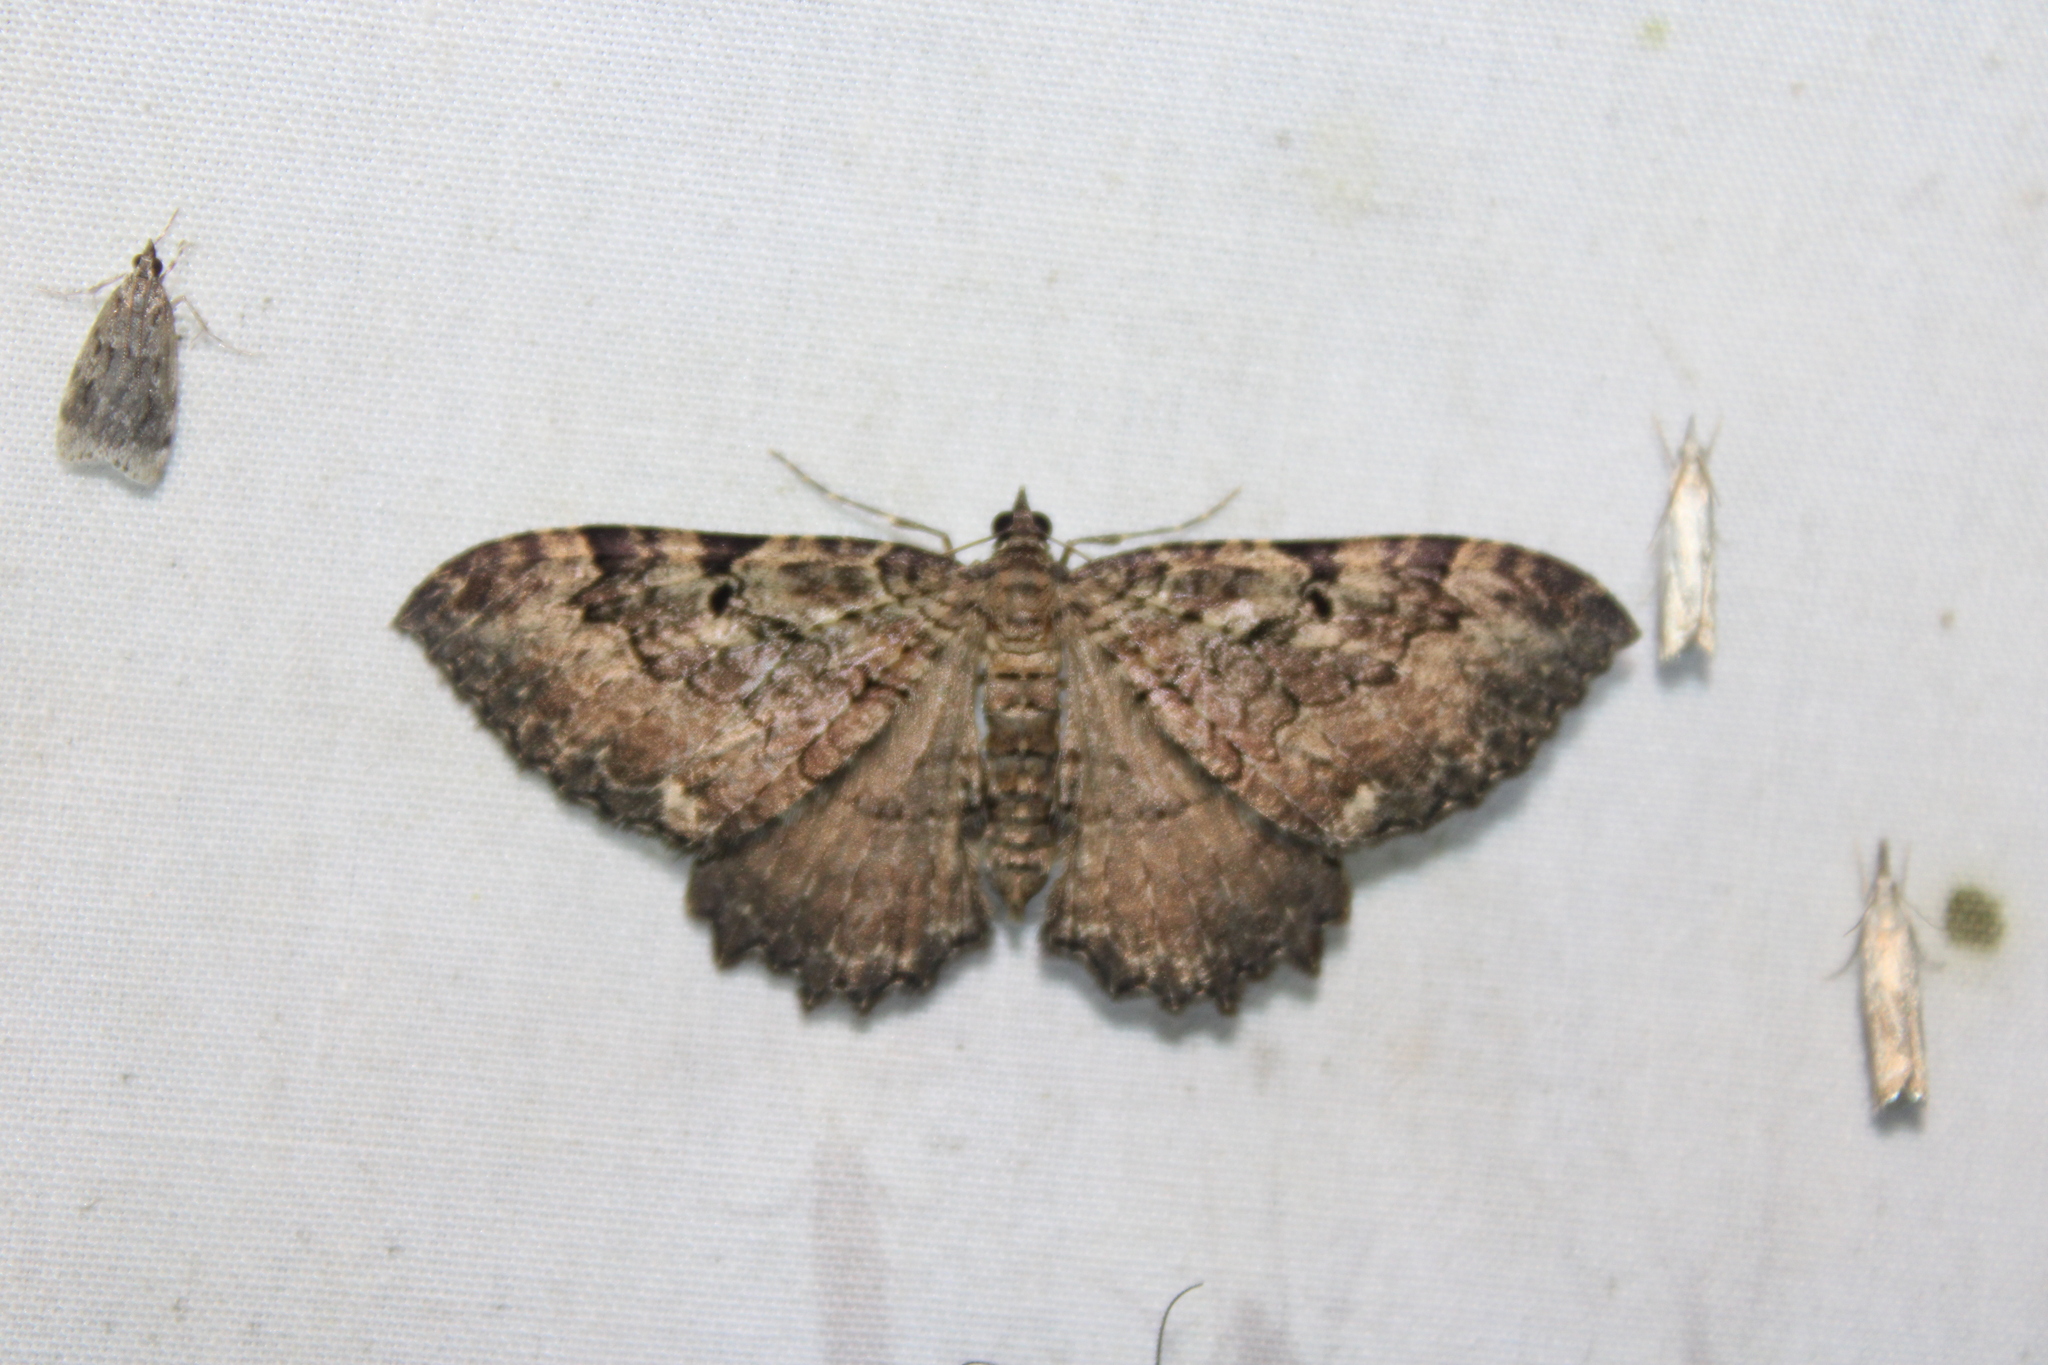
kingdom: Animalia
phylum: Arthropoda
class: Insecta
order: Lepidoptera
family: Geometridae
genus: Rheumaptera
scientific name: Rheumaptera
